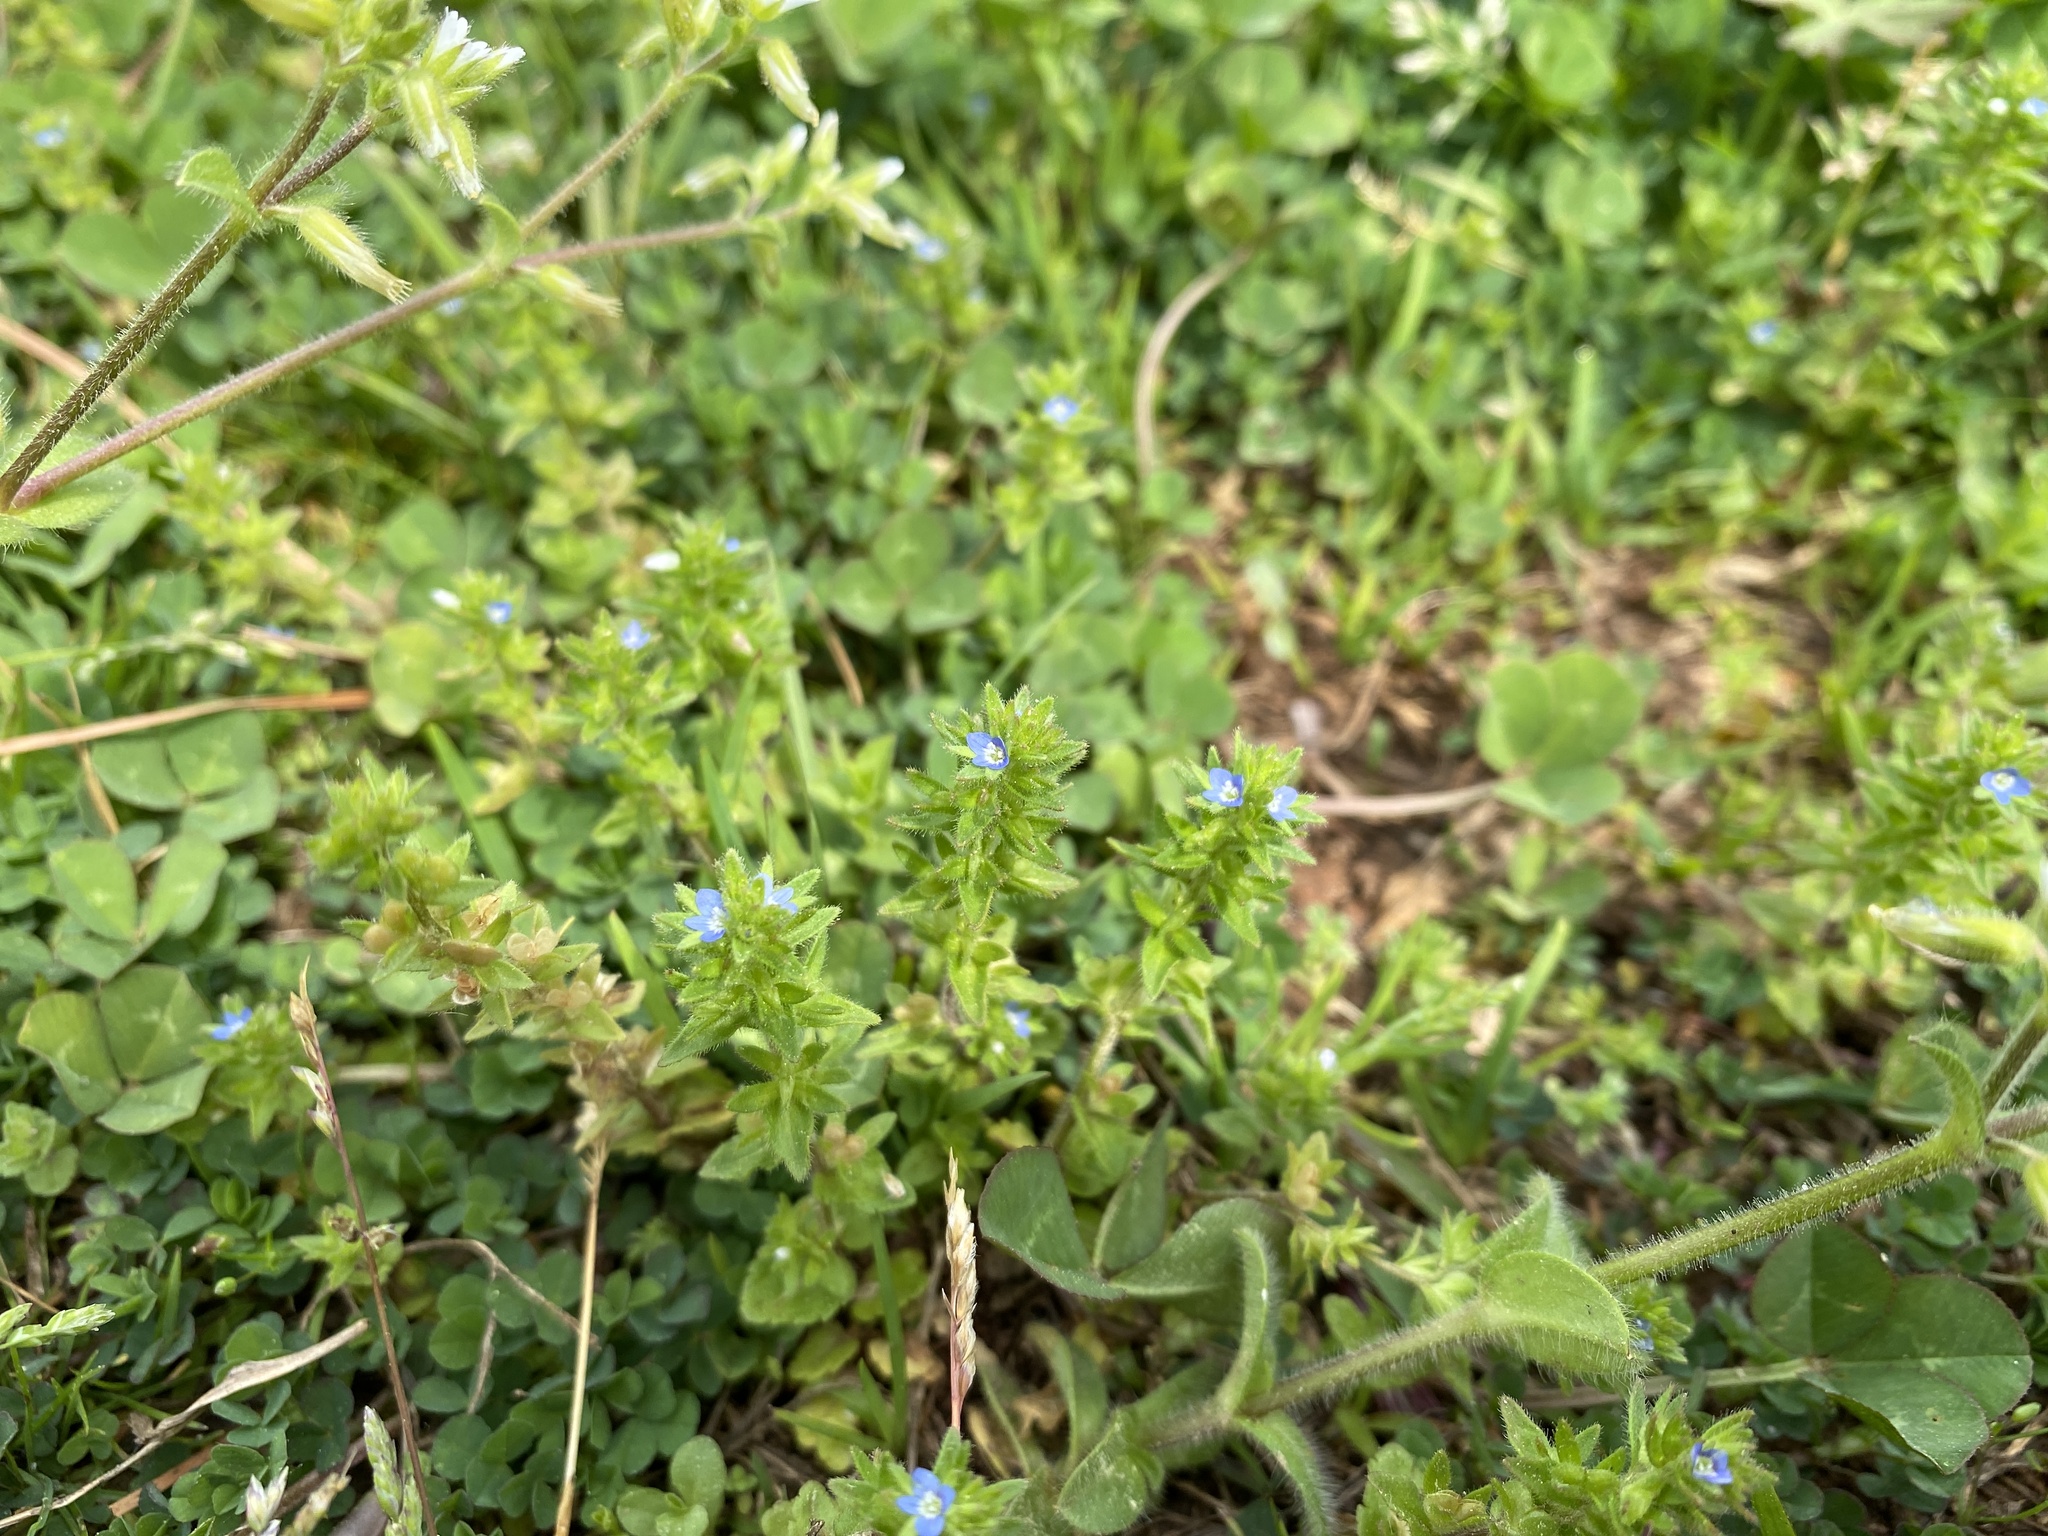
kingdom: Plantae
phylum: Tracheophyta
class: Magnoliopsida
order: Lamiales
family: Plantaginaceae
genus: Veronica
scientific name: Veronica arvensis
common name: Corn speedwell
